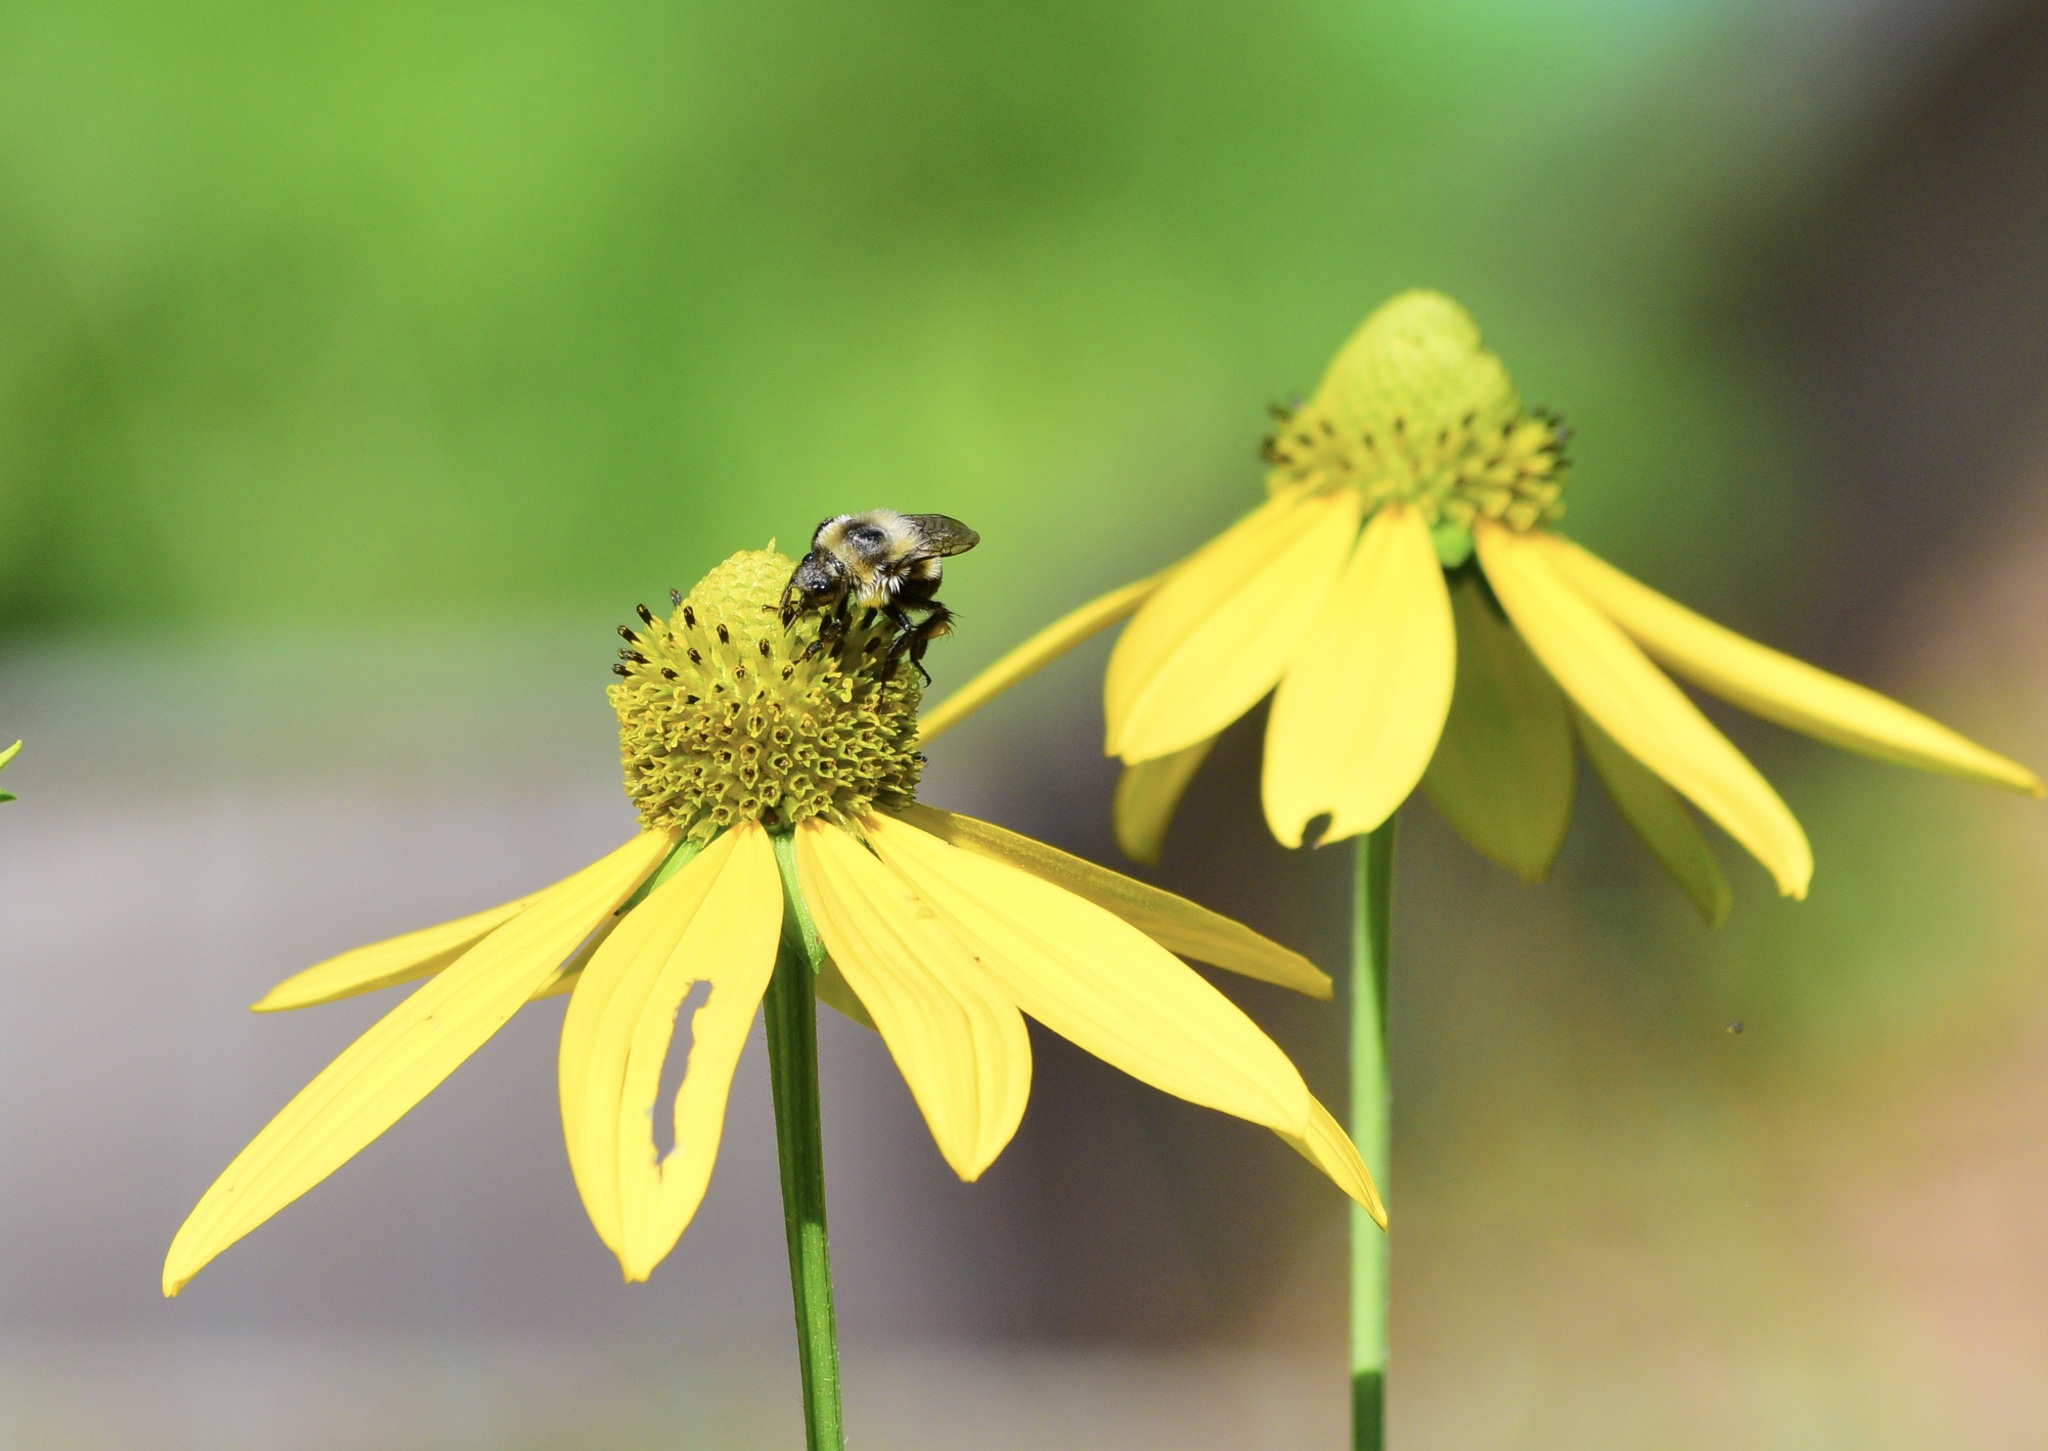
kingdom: Animalia
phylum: Arthropoda
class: Insecta
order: Hymenoptera
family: Apidae
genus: Bombus
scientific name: Bombus impatiens
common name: Common eastern bumble bee
